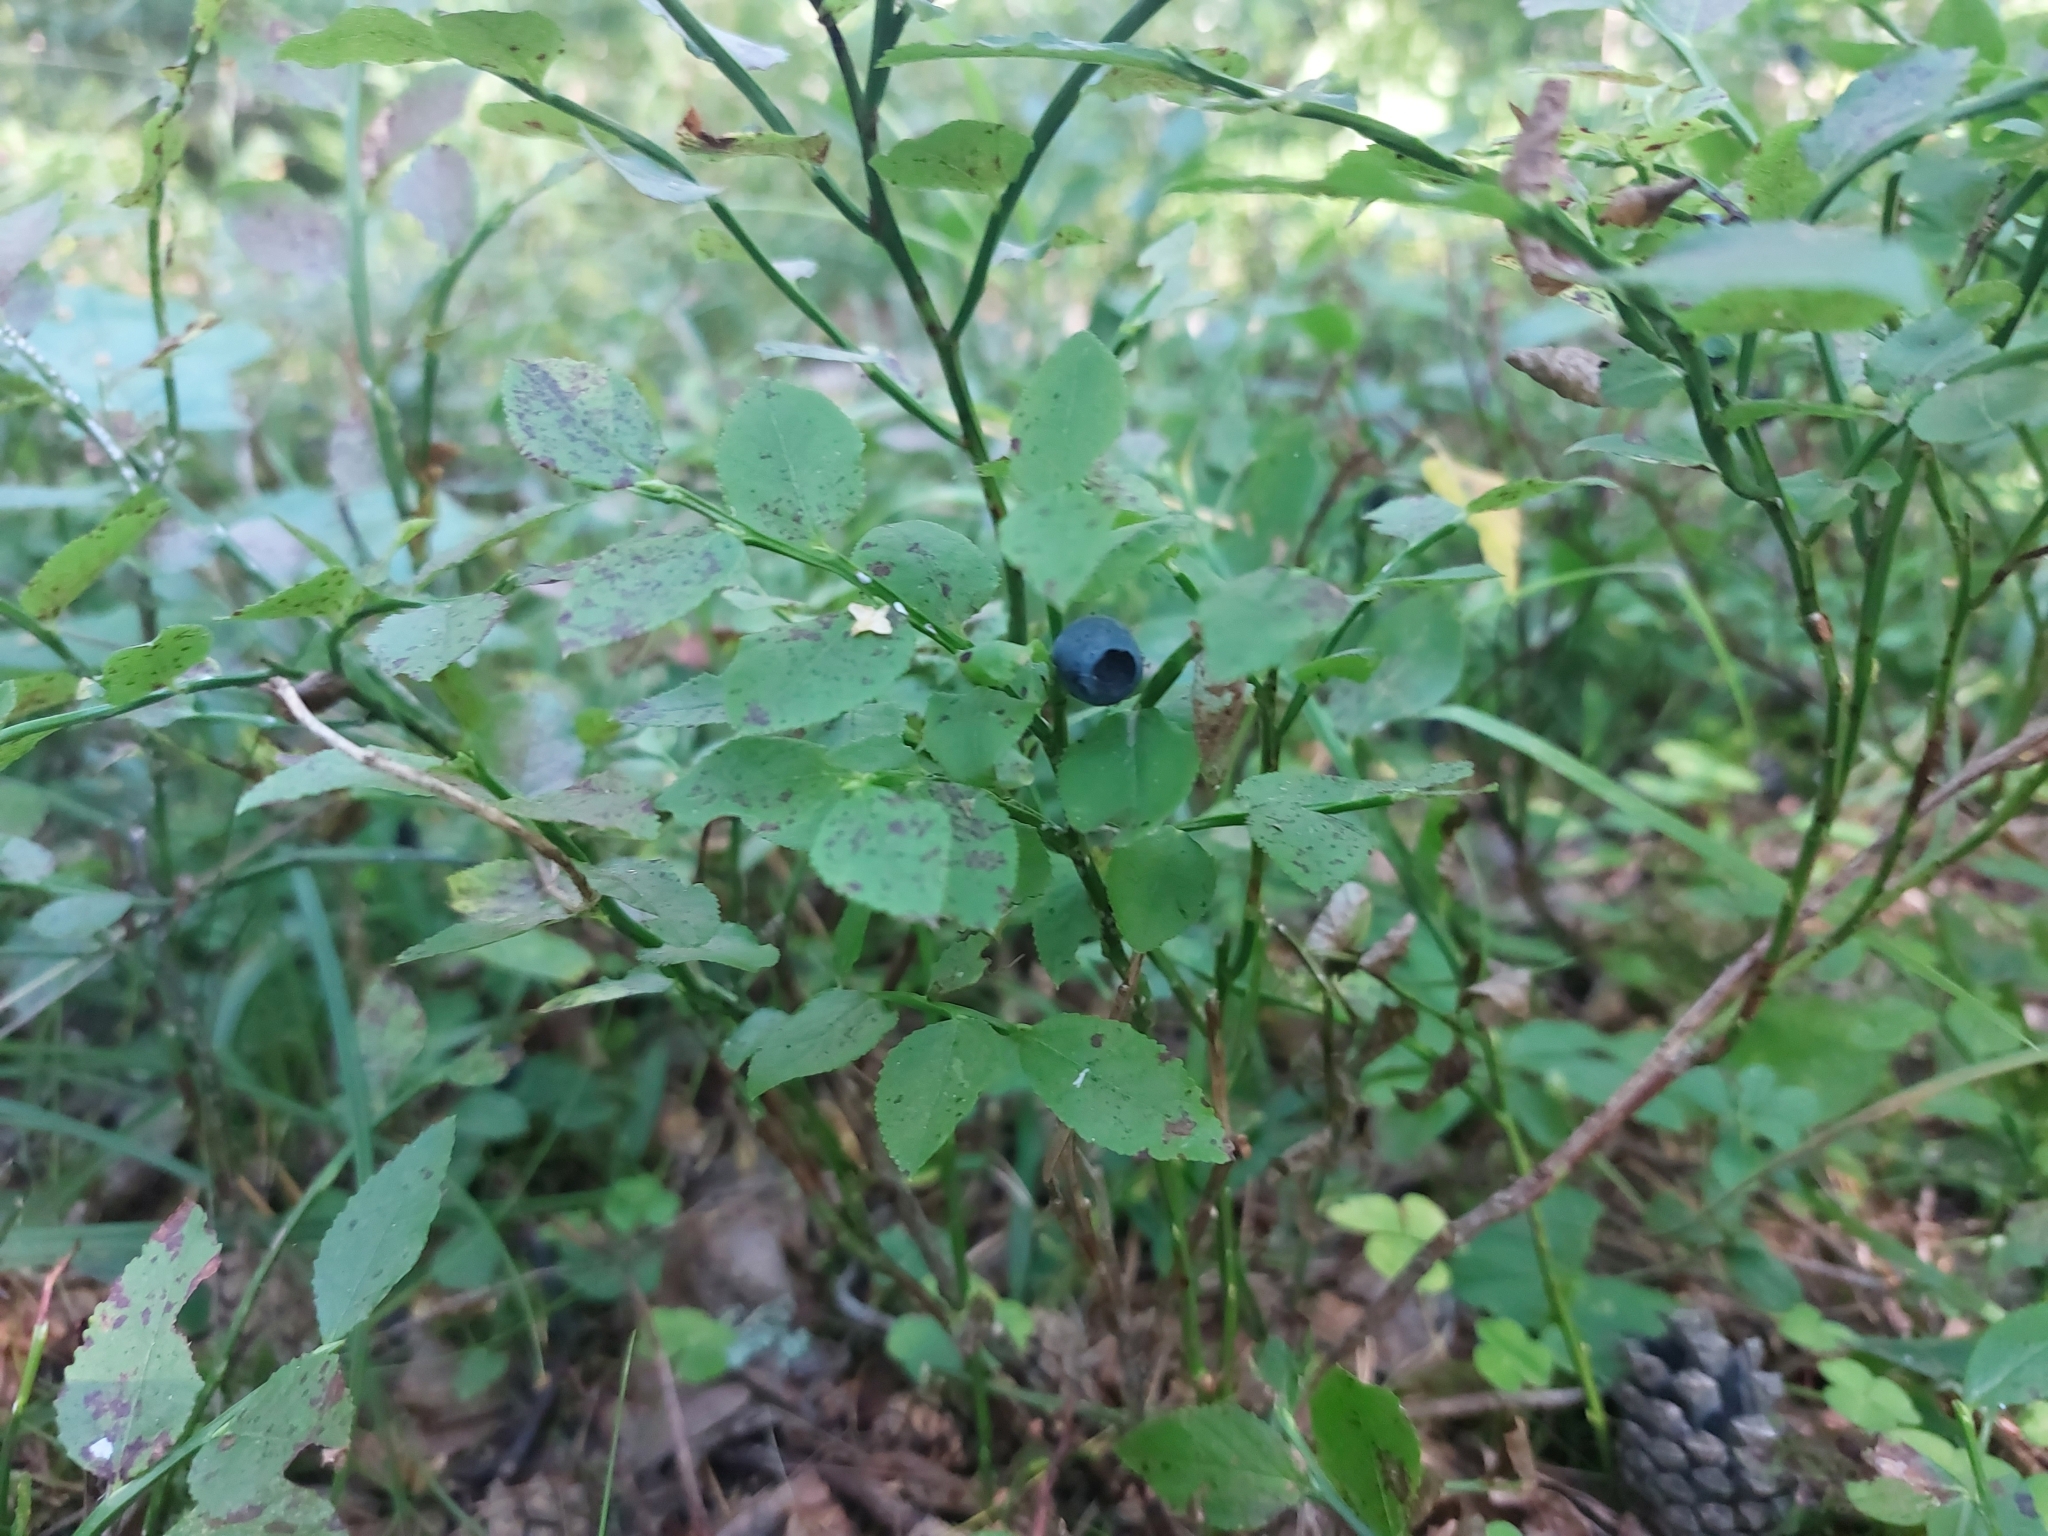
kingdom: Plantae
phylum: Tracheophyta
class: Magnoliopsida
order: Ericales
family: Ericaceae
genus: Vaccinium
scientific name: Vaccinium myrtillus
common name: Bilberry
